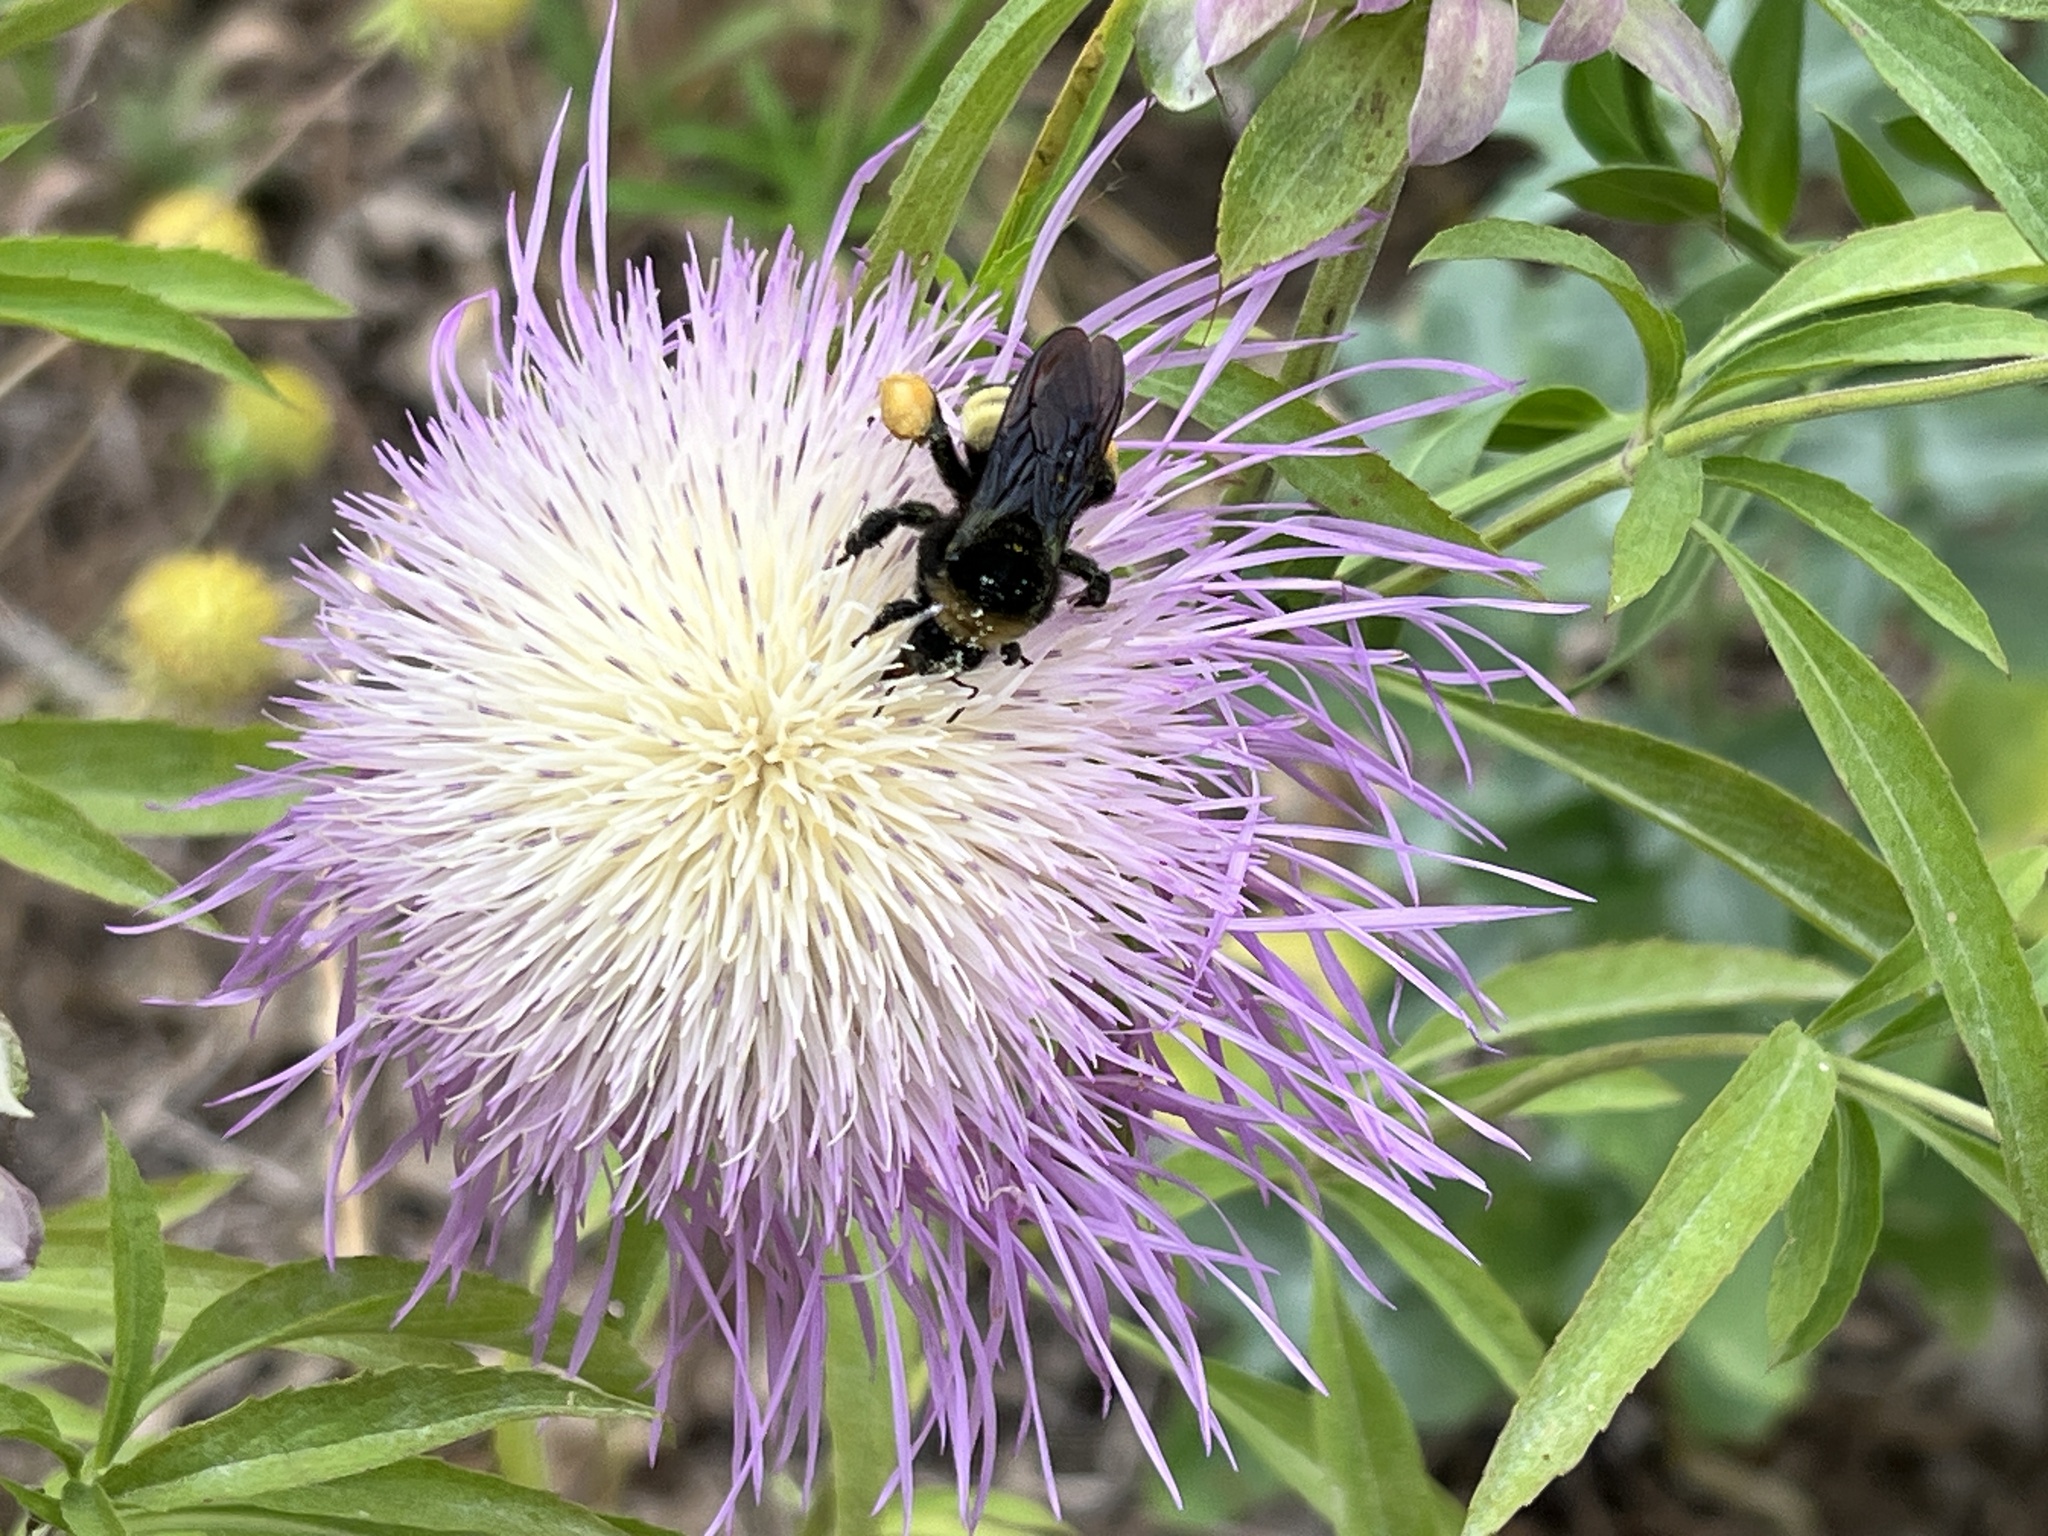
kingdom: Animalia
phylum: Arthropoda
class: Insecta
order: Hymenoptera
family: Apidae
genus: Bombus
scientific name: Bombus pensylvanicus
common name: Bumble bee
